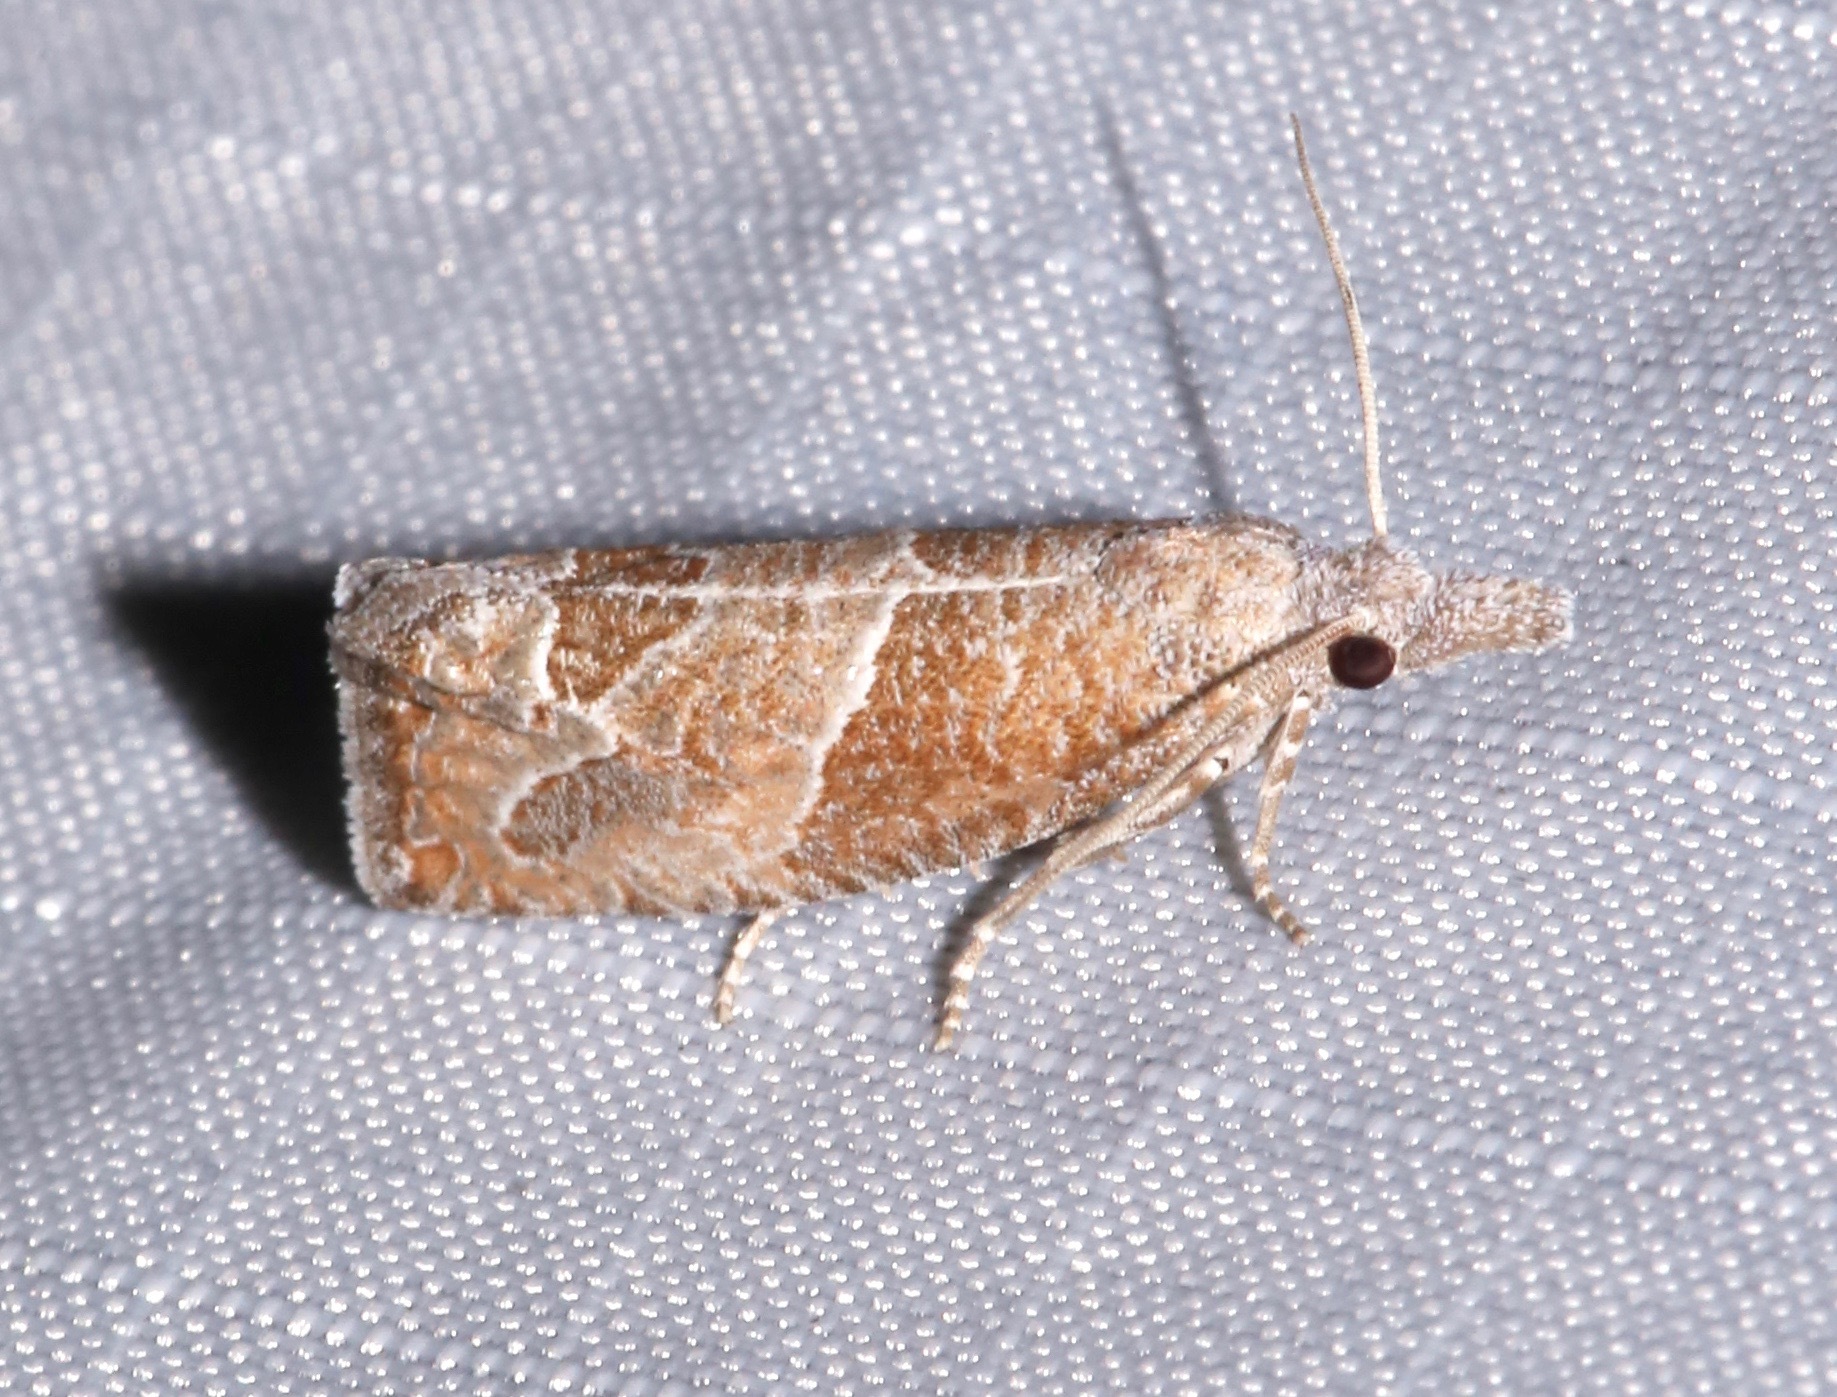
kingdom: Animalia
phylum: Arthropoda
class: Insecta
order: Lepidoptera
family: Tortricidae
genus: Pelochrista
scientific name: Pelochrista dilatana
